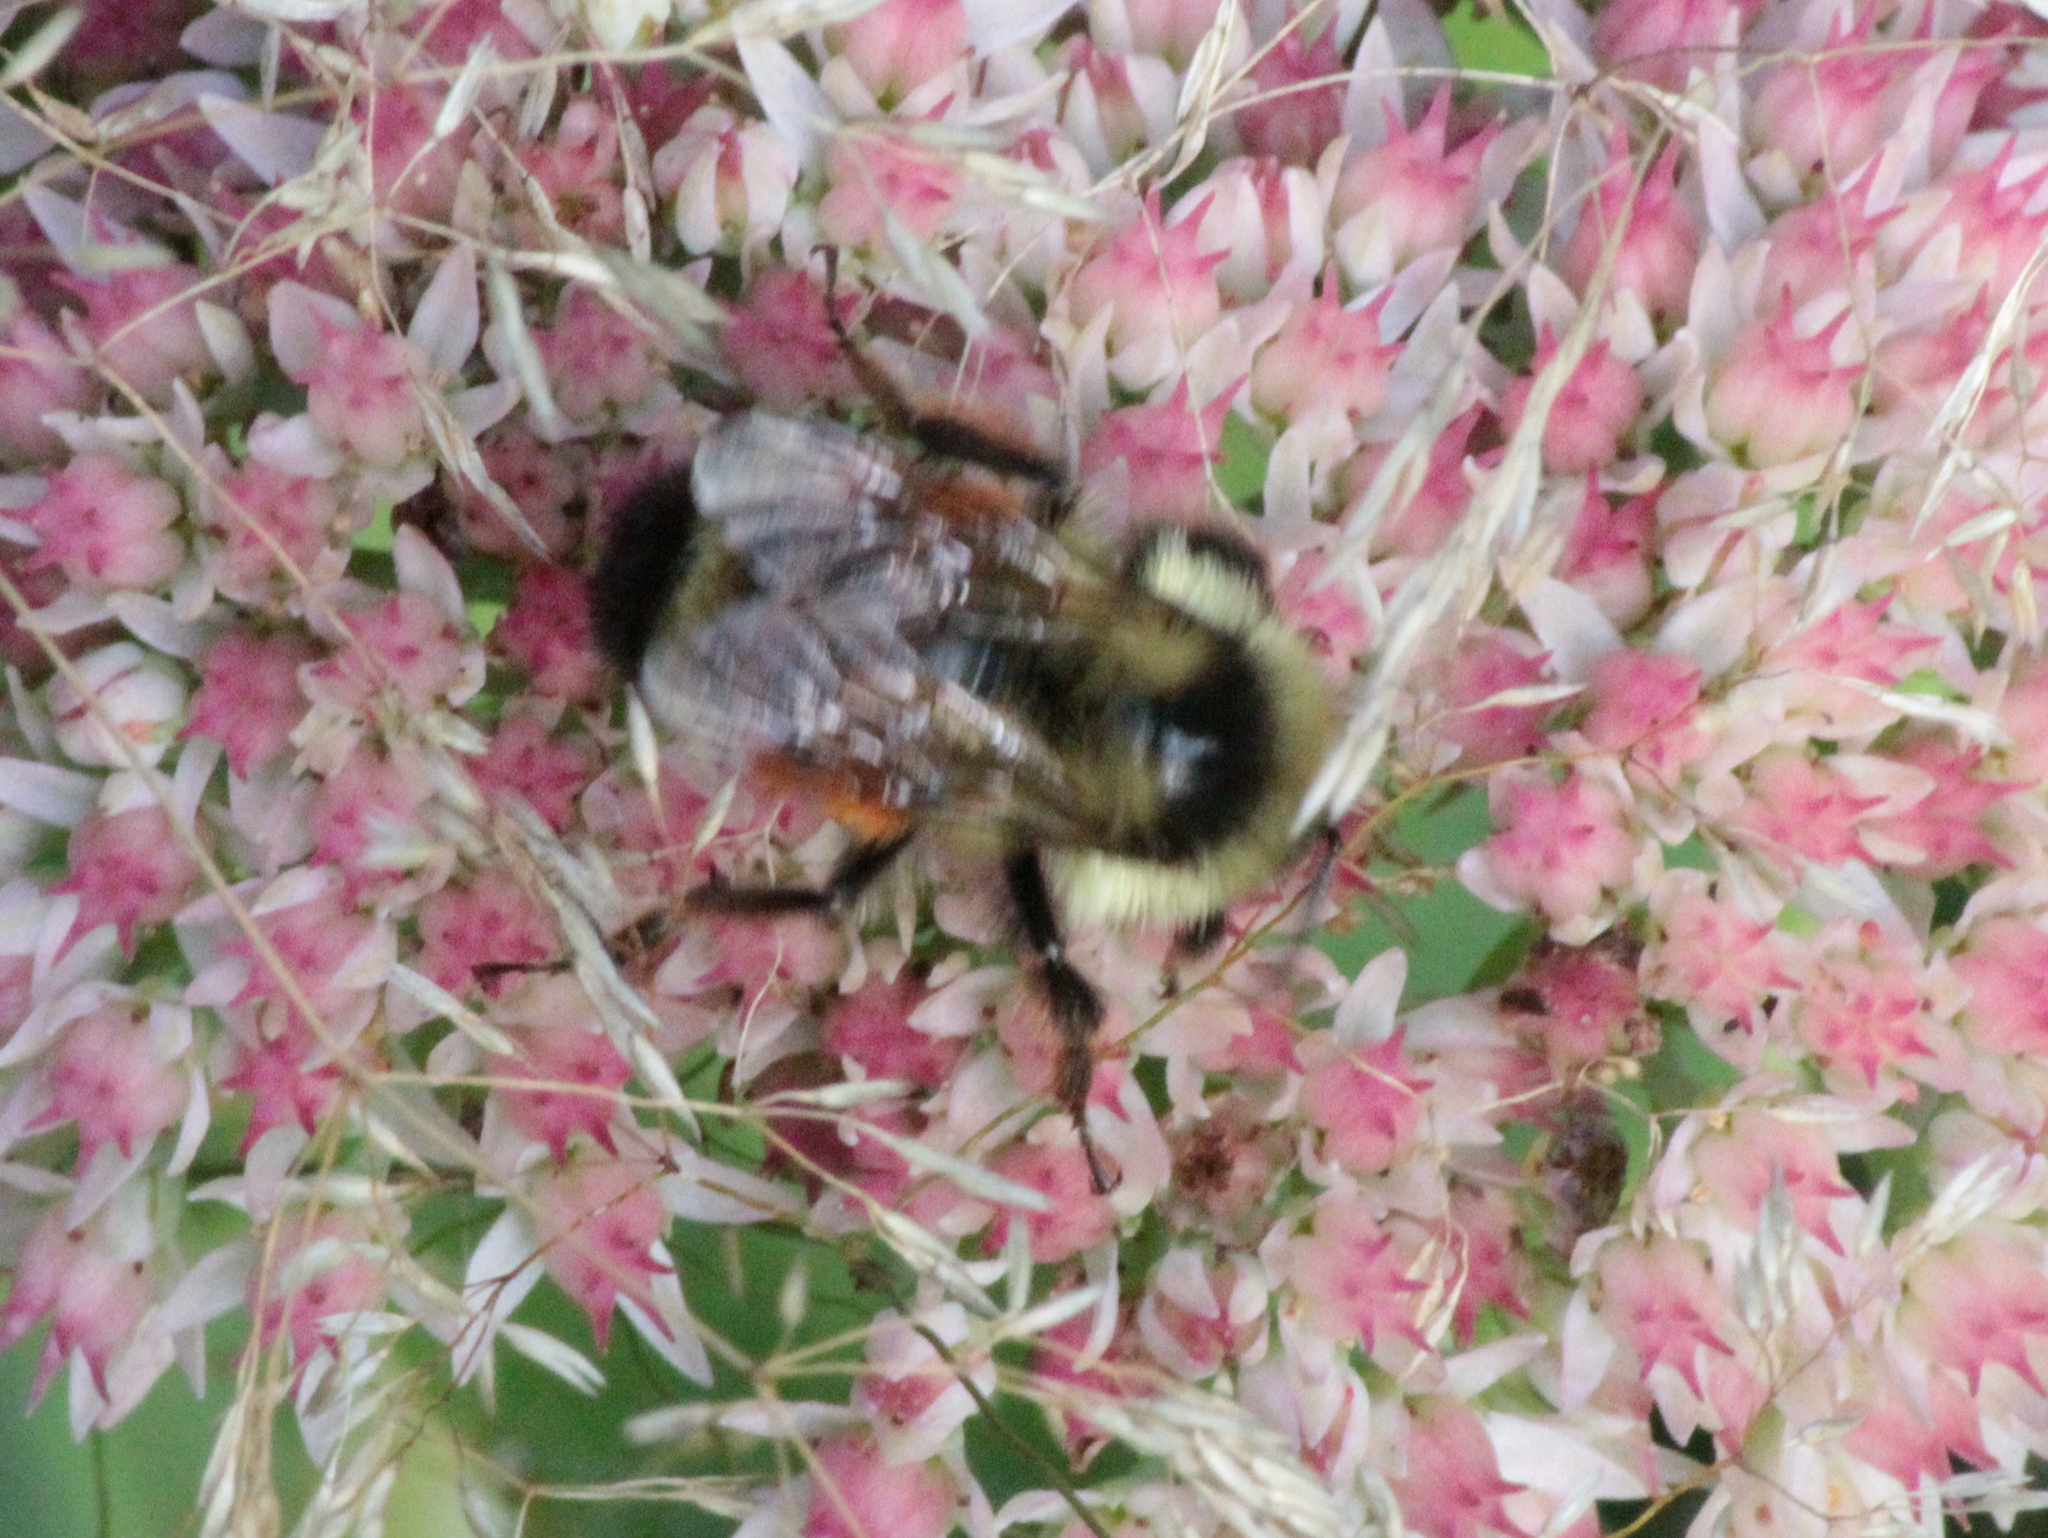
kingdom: Animalia
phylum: Arthropoda
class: Insecta
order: Hymenoptera
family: Apidae
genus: Bombus
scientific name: Bombus ternarius
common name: Tri-colored bumble bee
